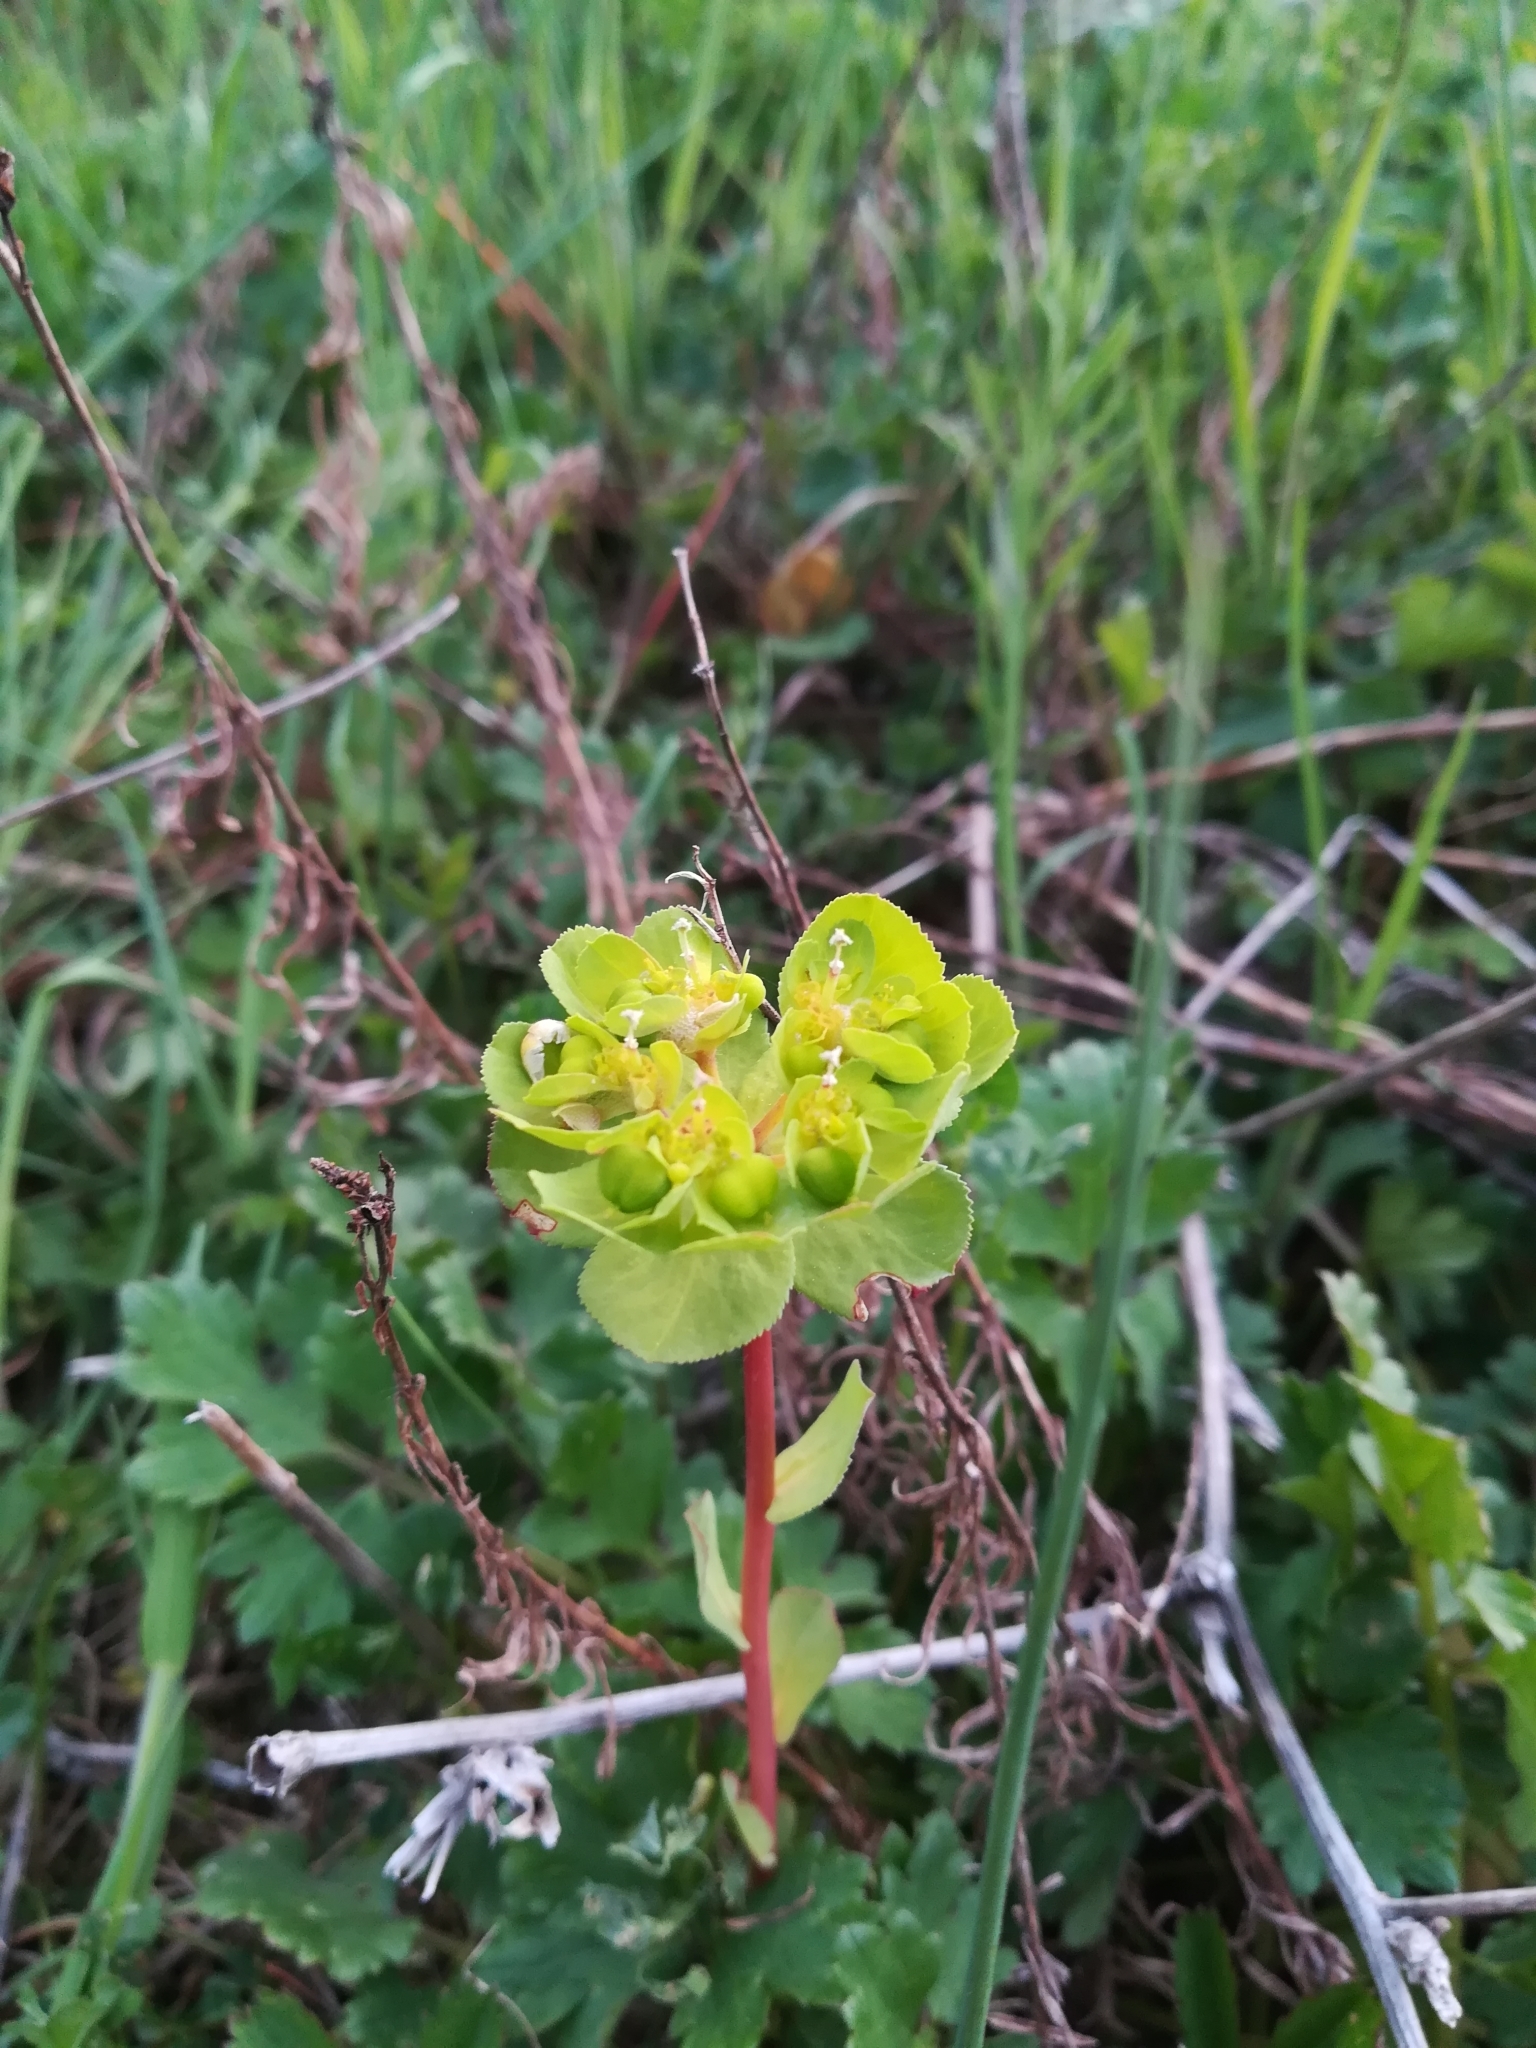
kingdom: Plantae
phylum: Tracheophyta
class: Magnoliopsida
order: Malpighiales
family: Euphorbiaceae
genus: Euphorbia
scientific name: Euphorbia helioscopia
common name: Sun spurge
